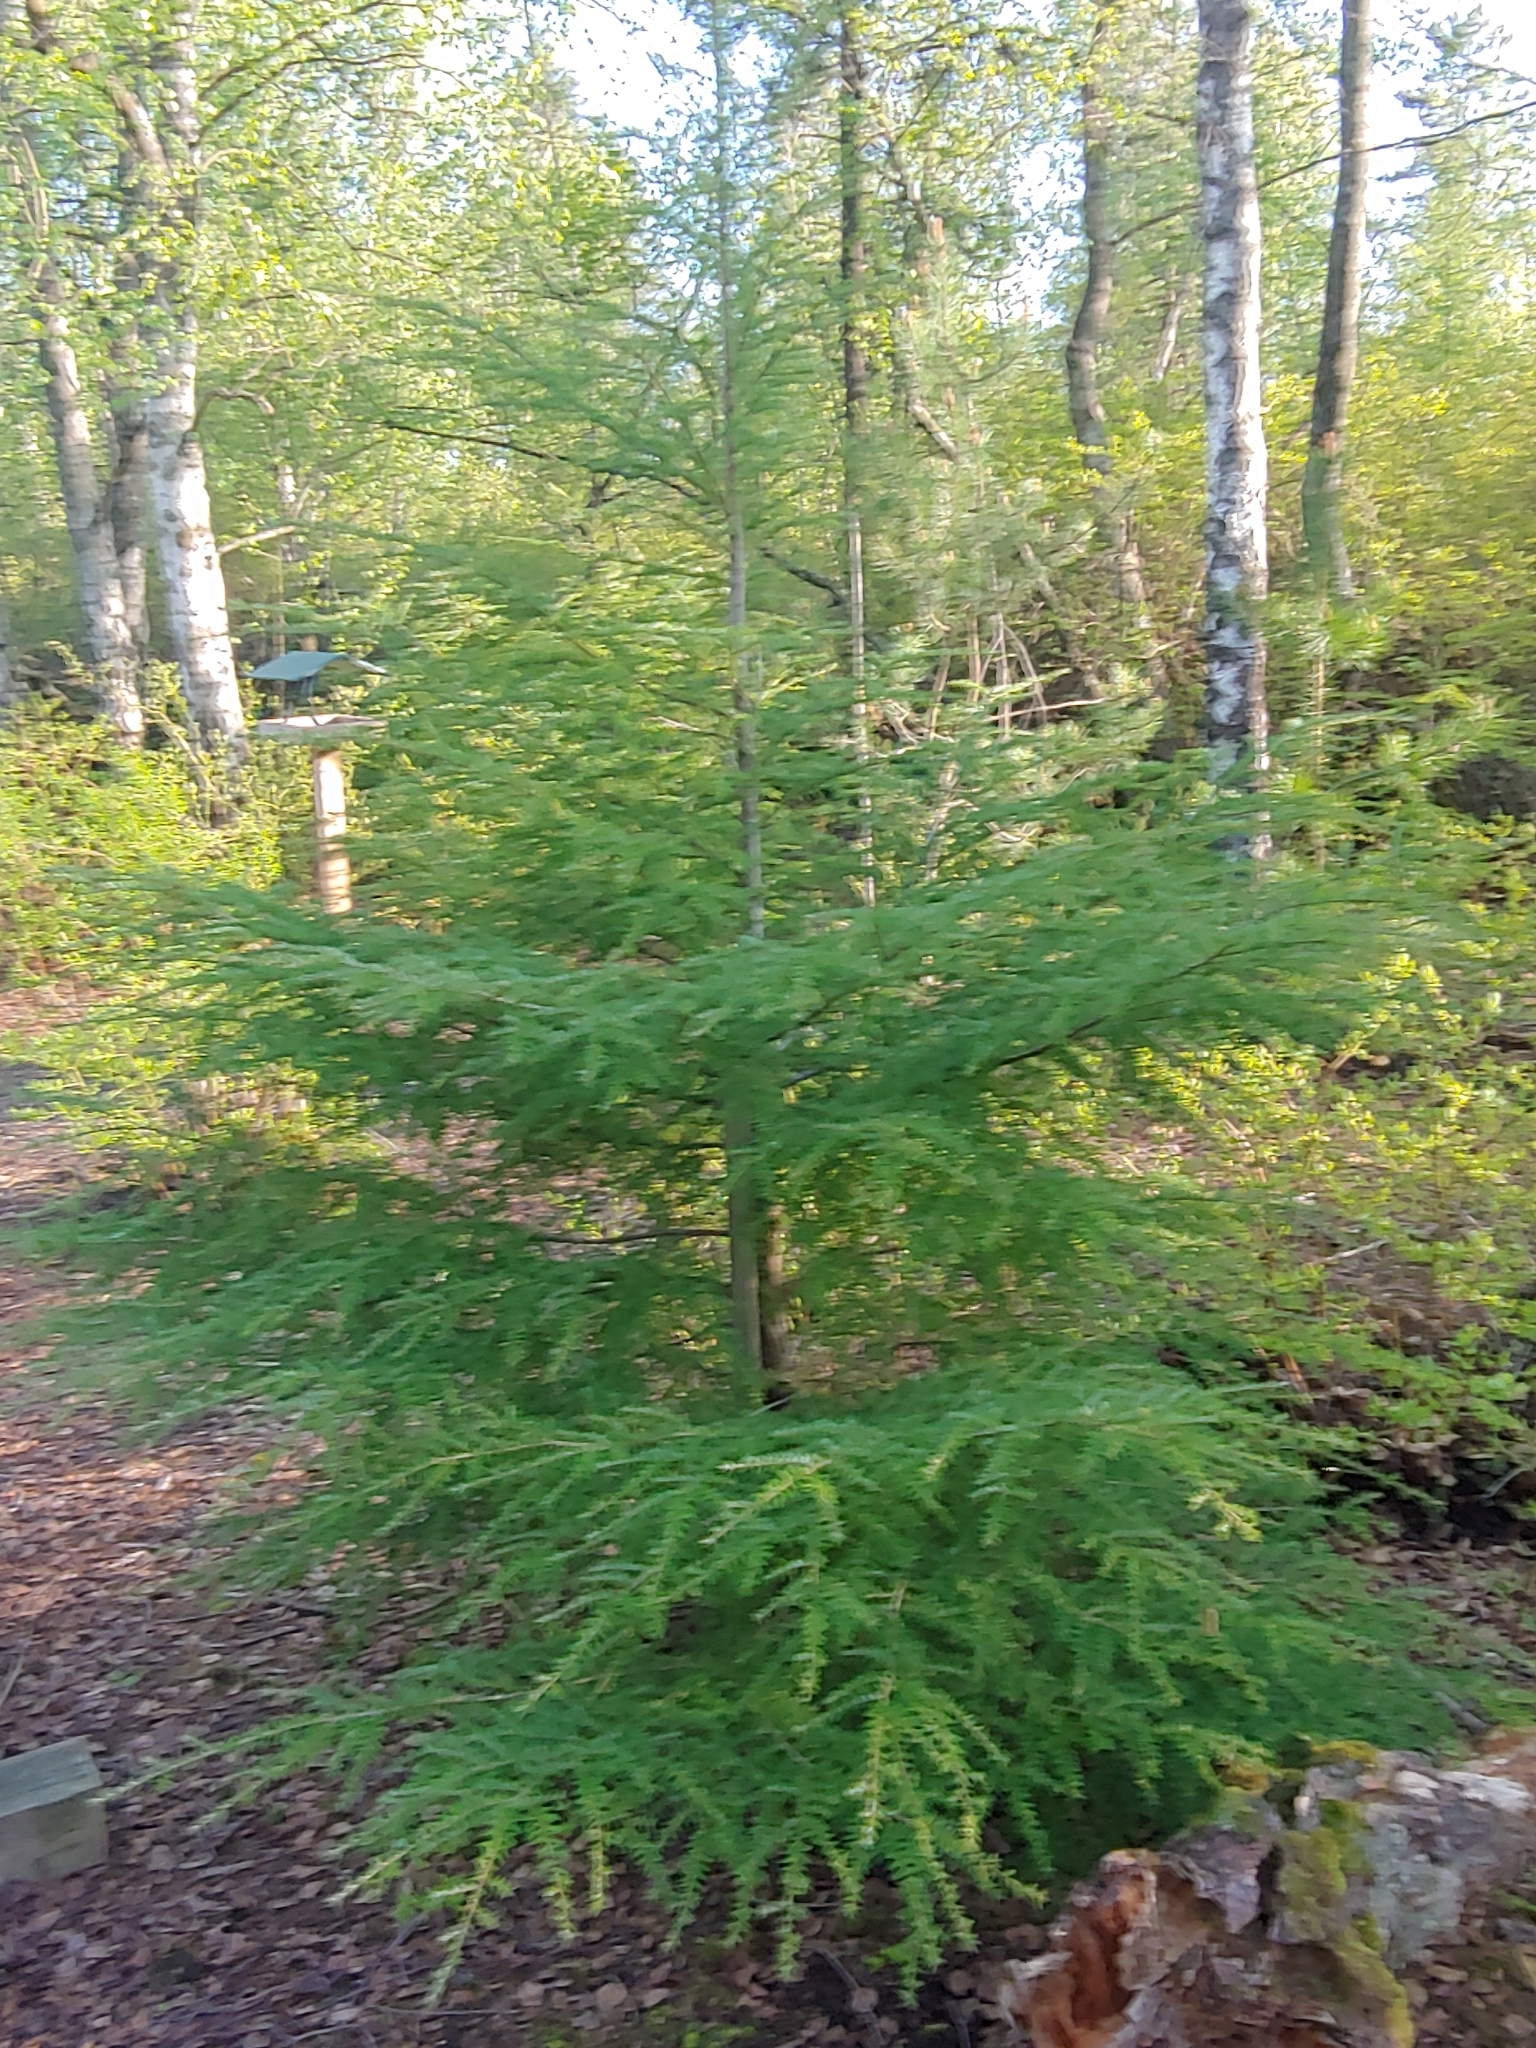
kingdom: Plantae
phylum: Tracheophyta
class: Pinopsida
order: Pinales
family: Pinaceae
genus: Tsuga
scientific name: Tsuga heterophylla
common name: Western hemlock
